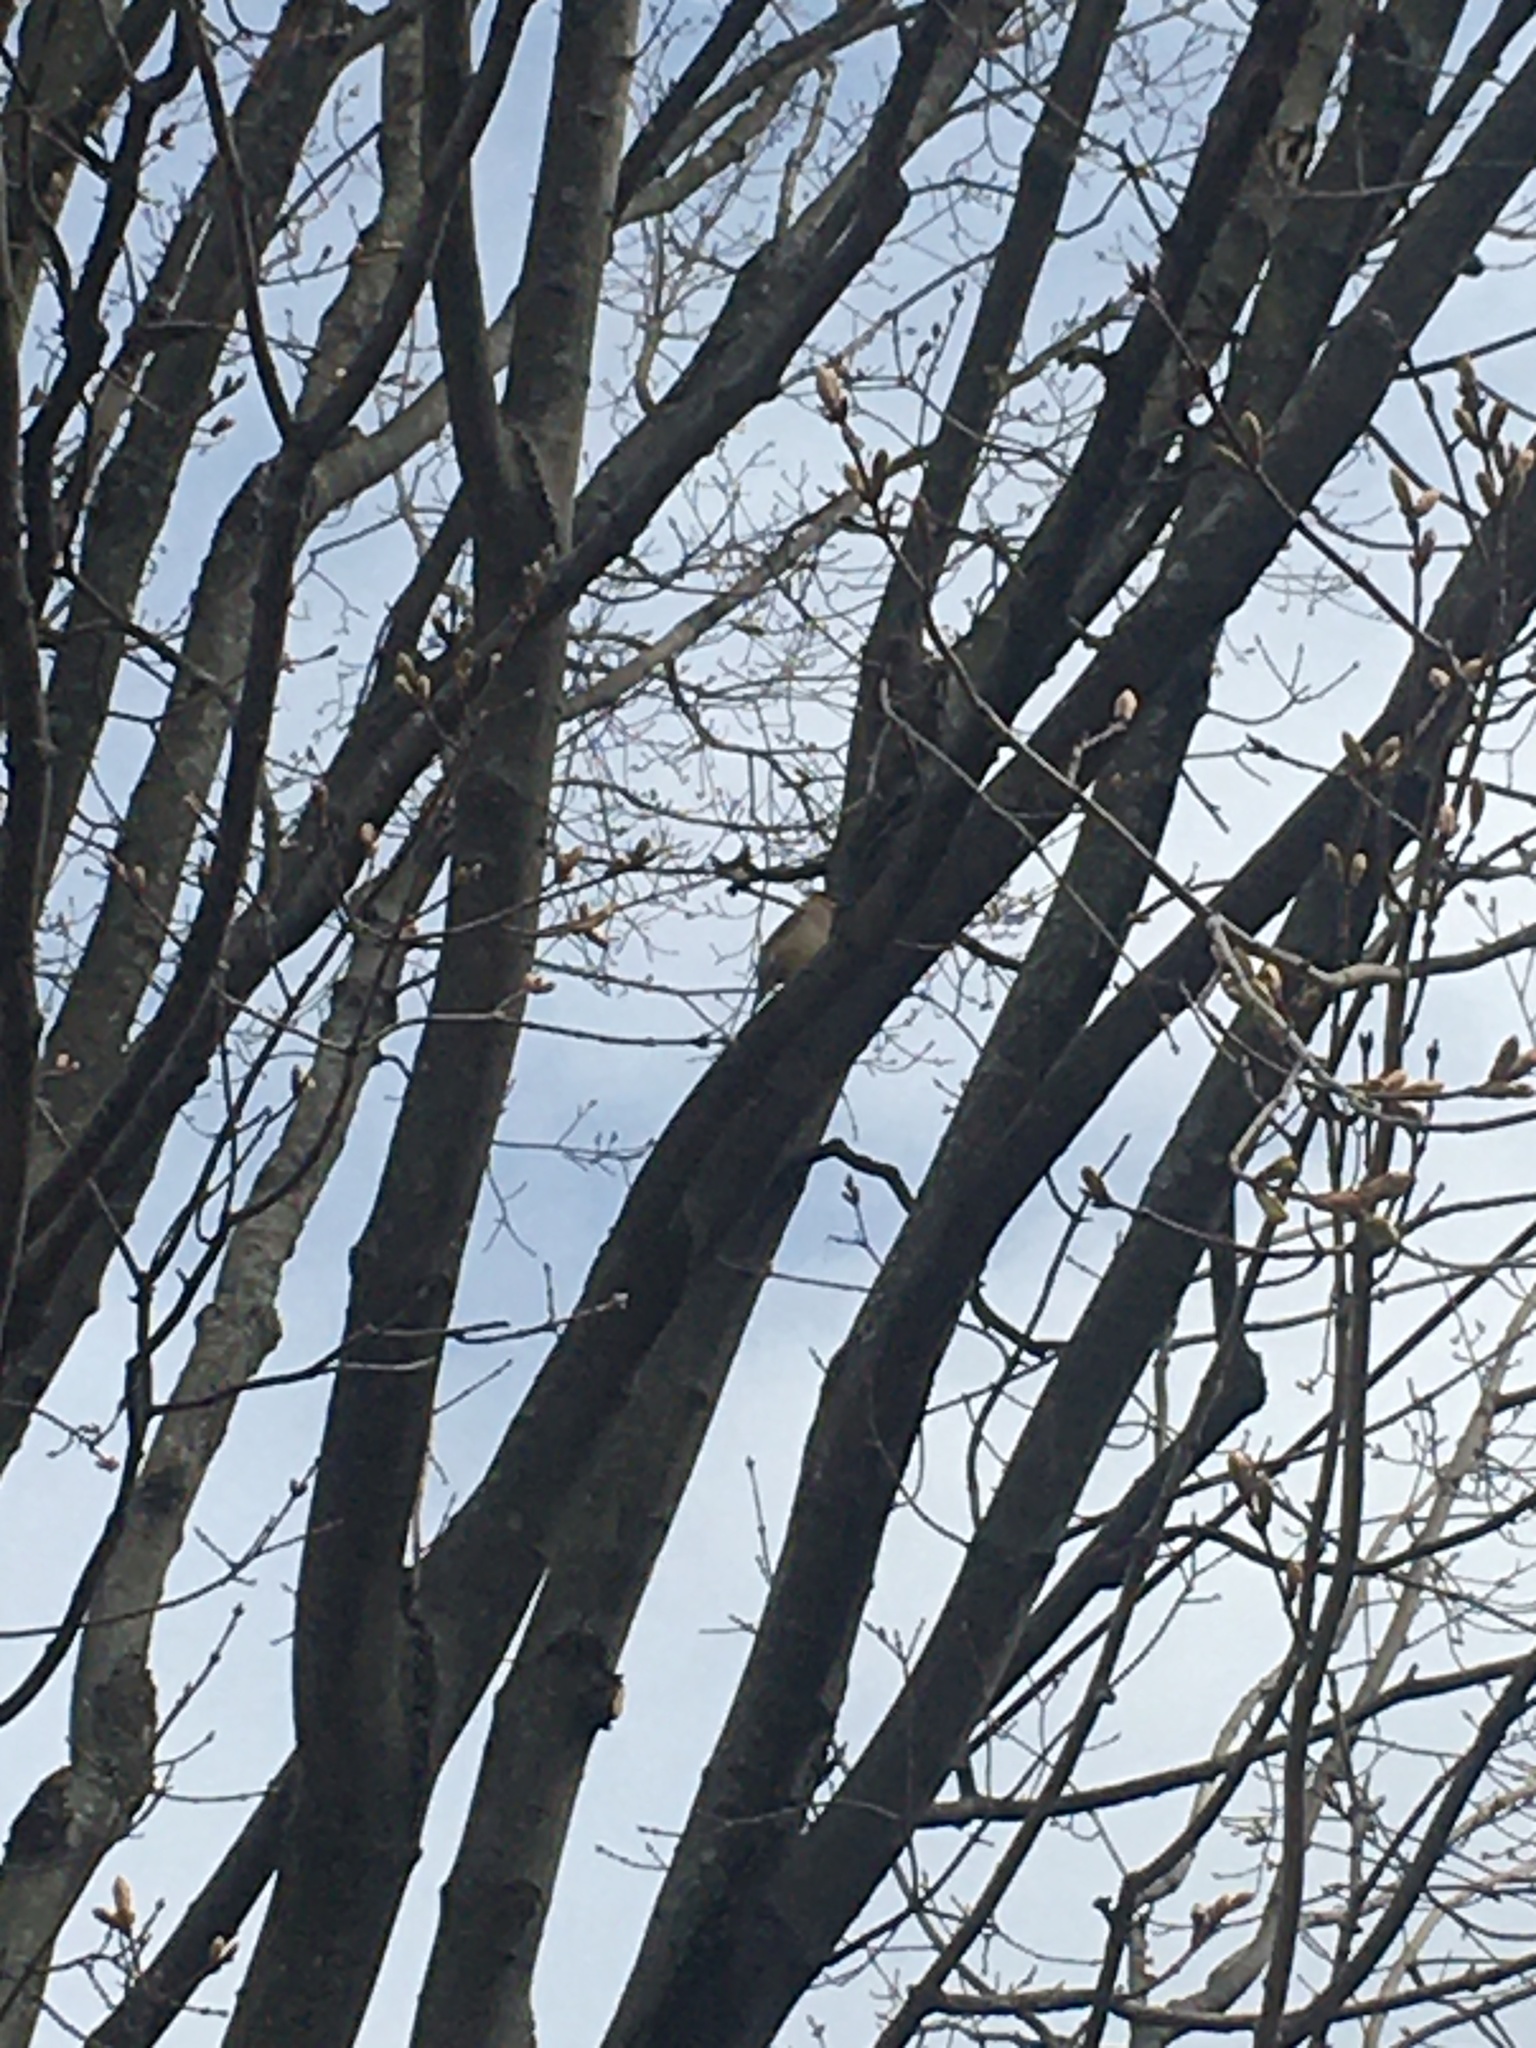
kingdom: Animalia
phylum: Chordata
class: Aves
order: Passeriformes
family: Bombycillidae
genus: Bombycilla
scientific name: Bombycilla cedrorum
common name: Cedar waxwing
